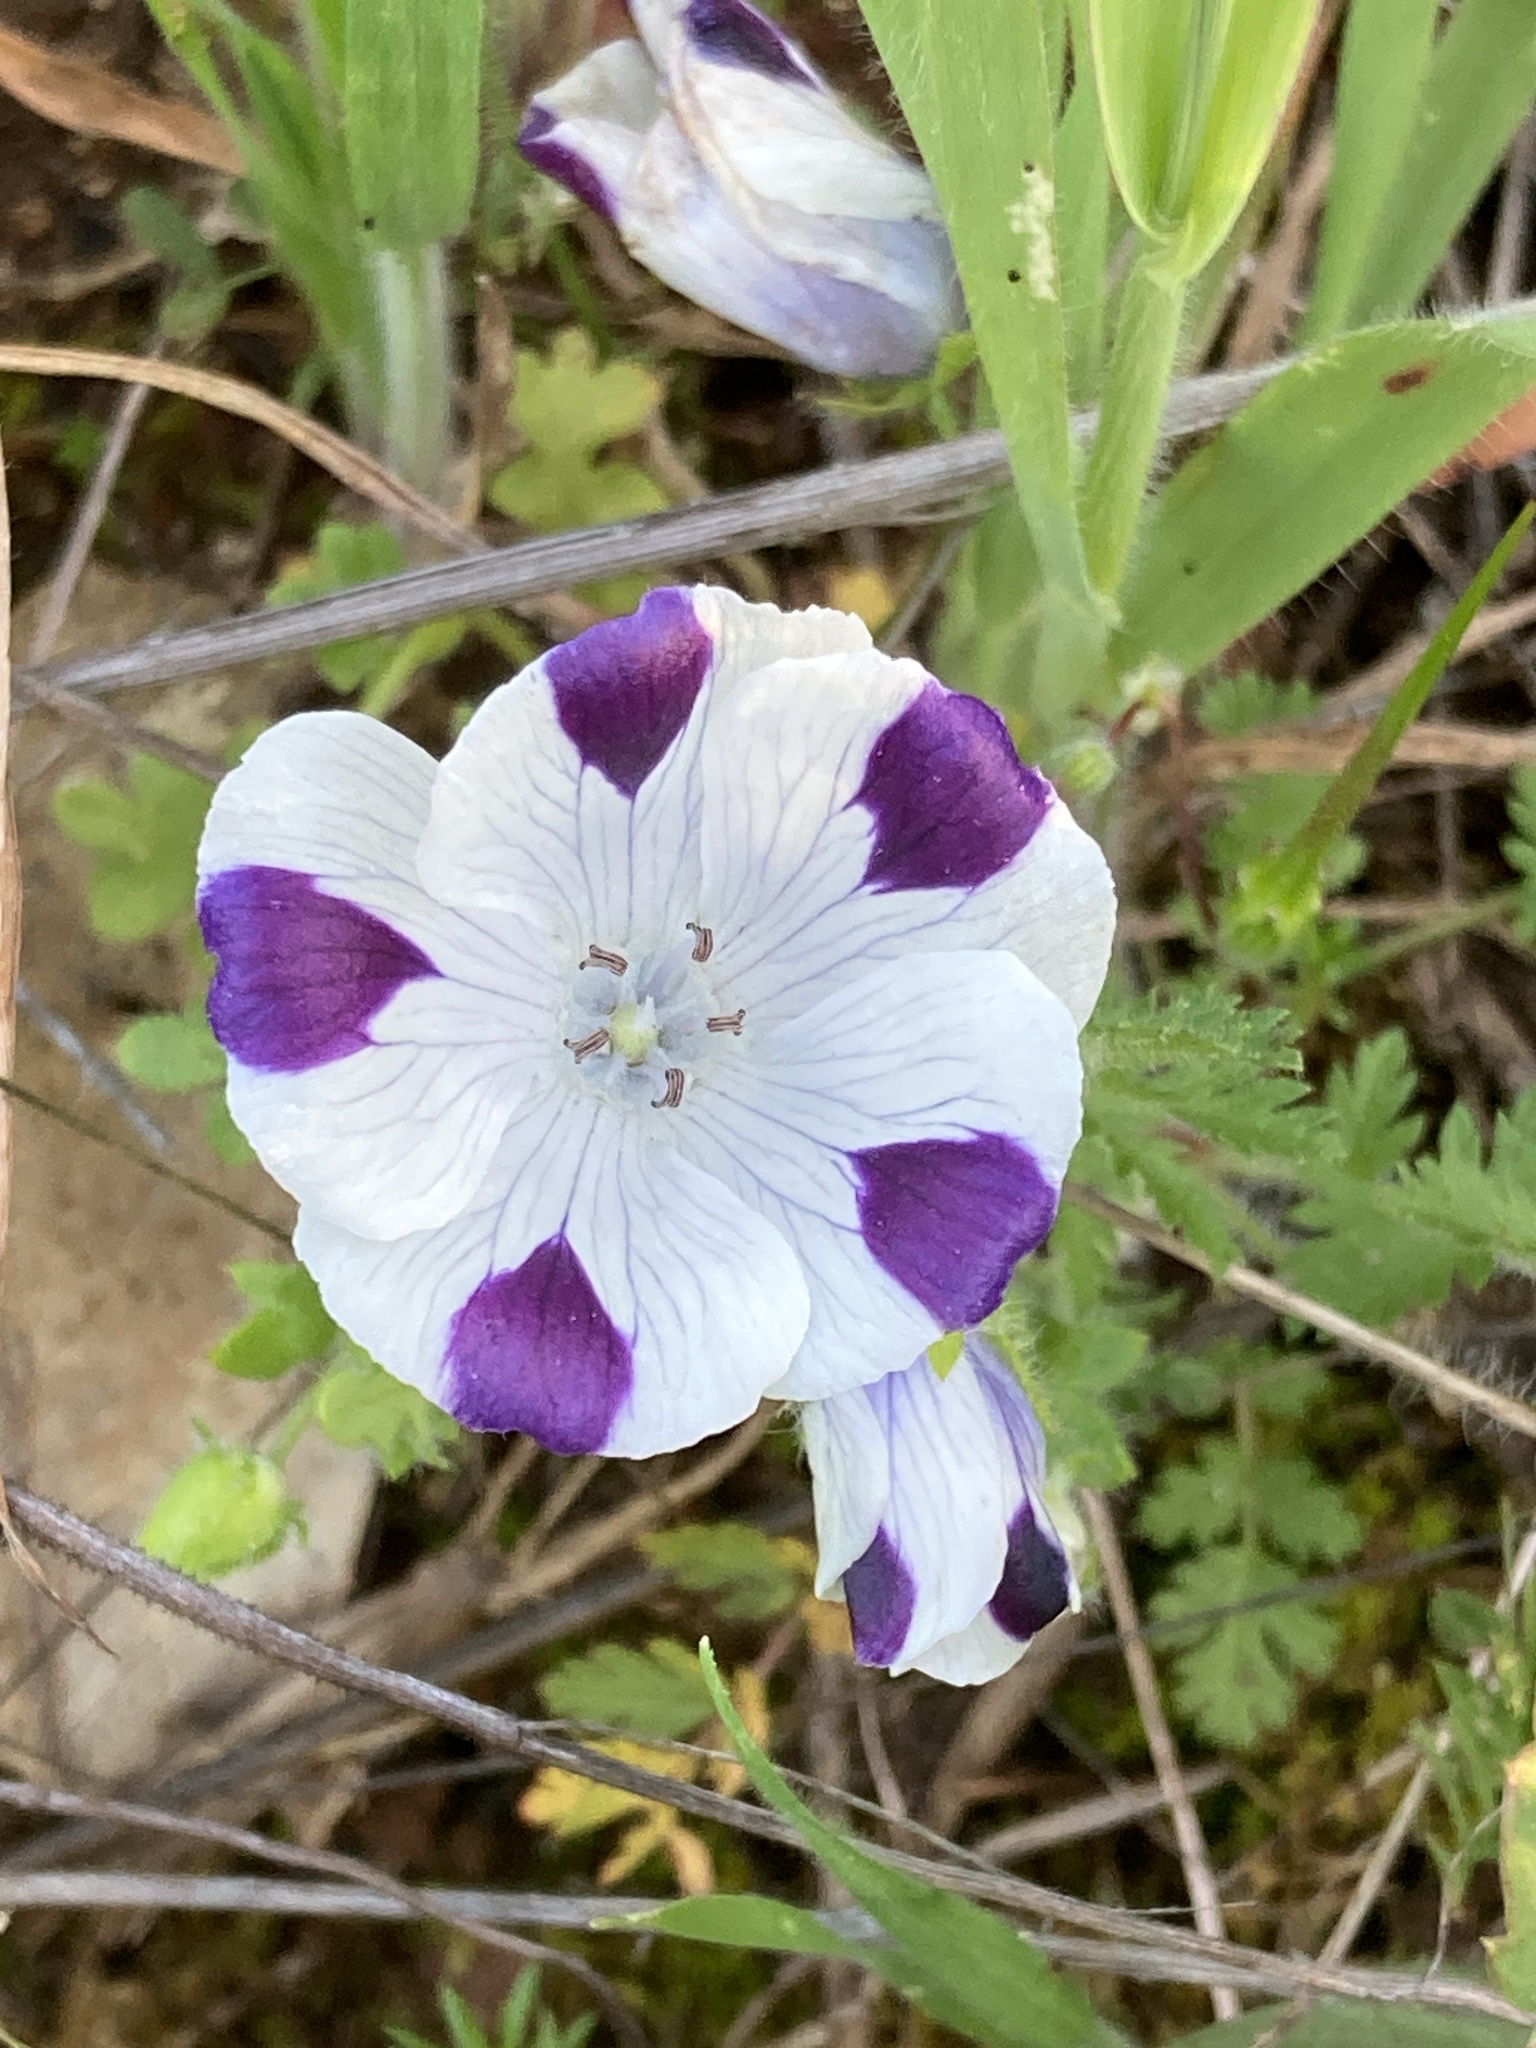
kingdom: Plantae
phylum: Tracheophyta
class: Magnoliopsida
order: Boraginales
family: Hydrophyllaceae
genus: Nemophila
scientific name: Nemophila maculata
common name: Fivespot
